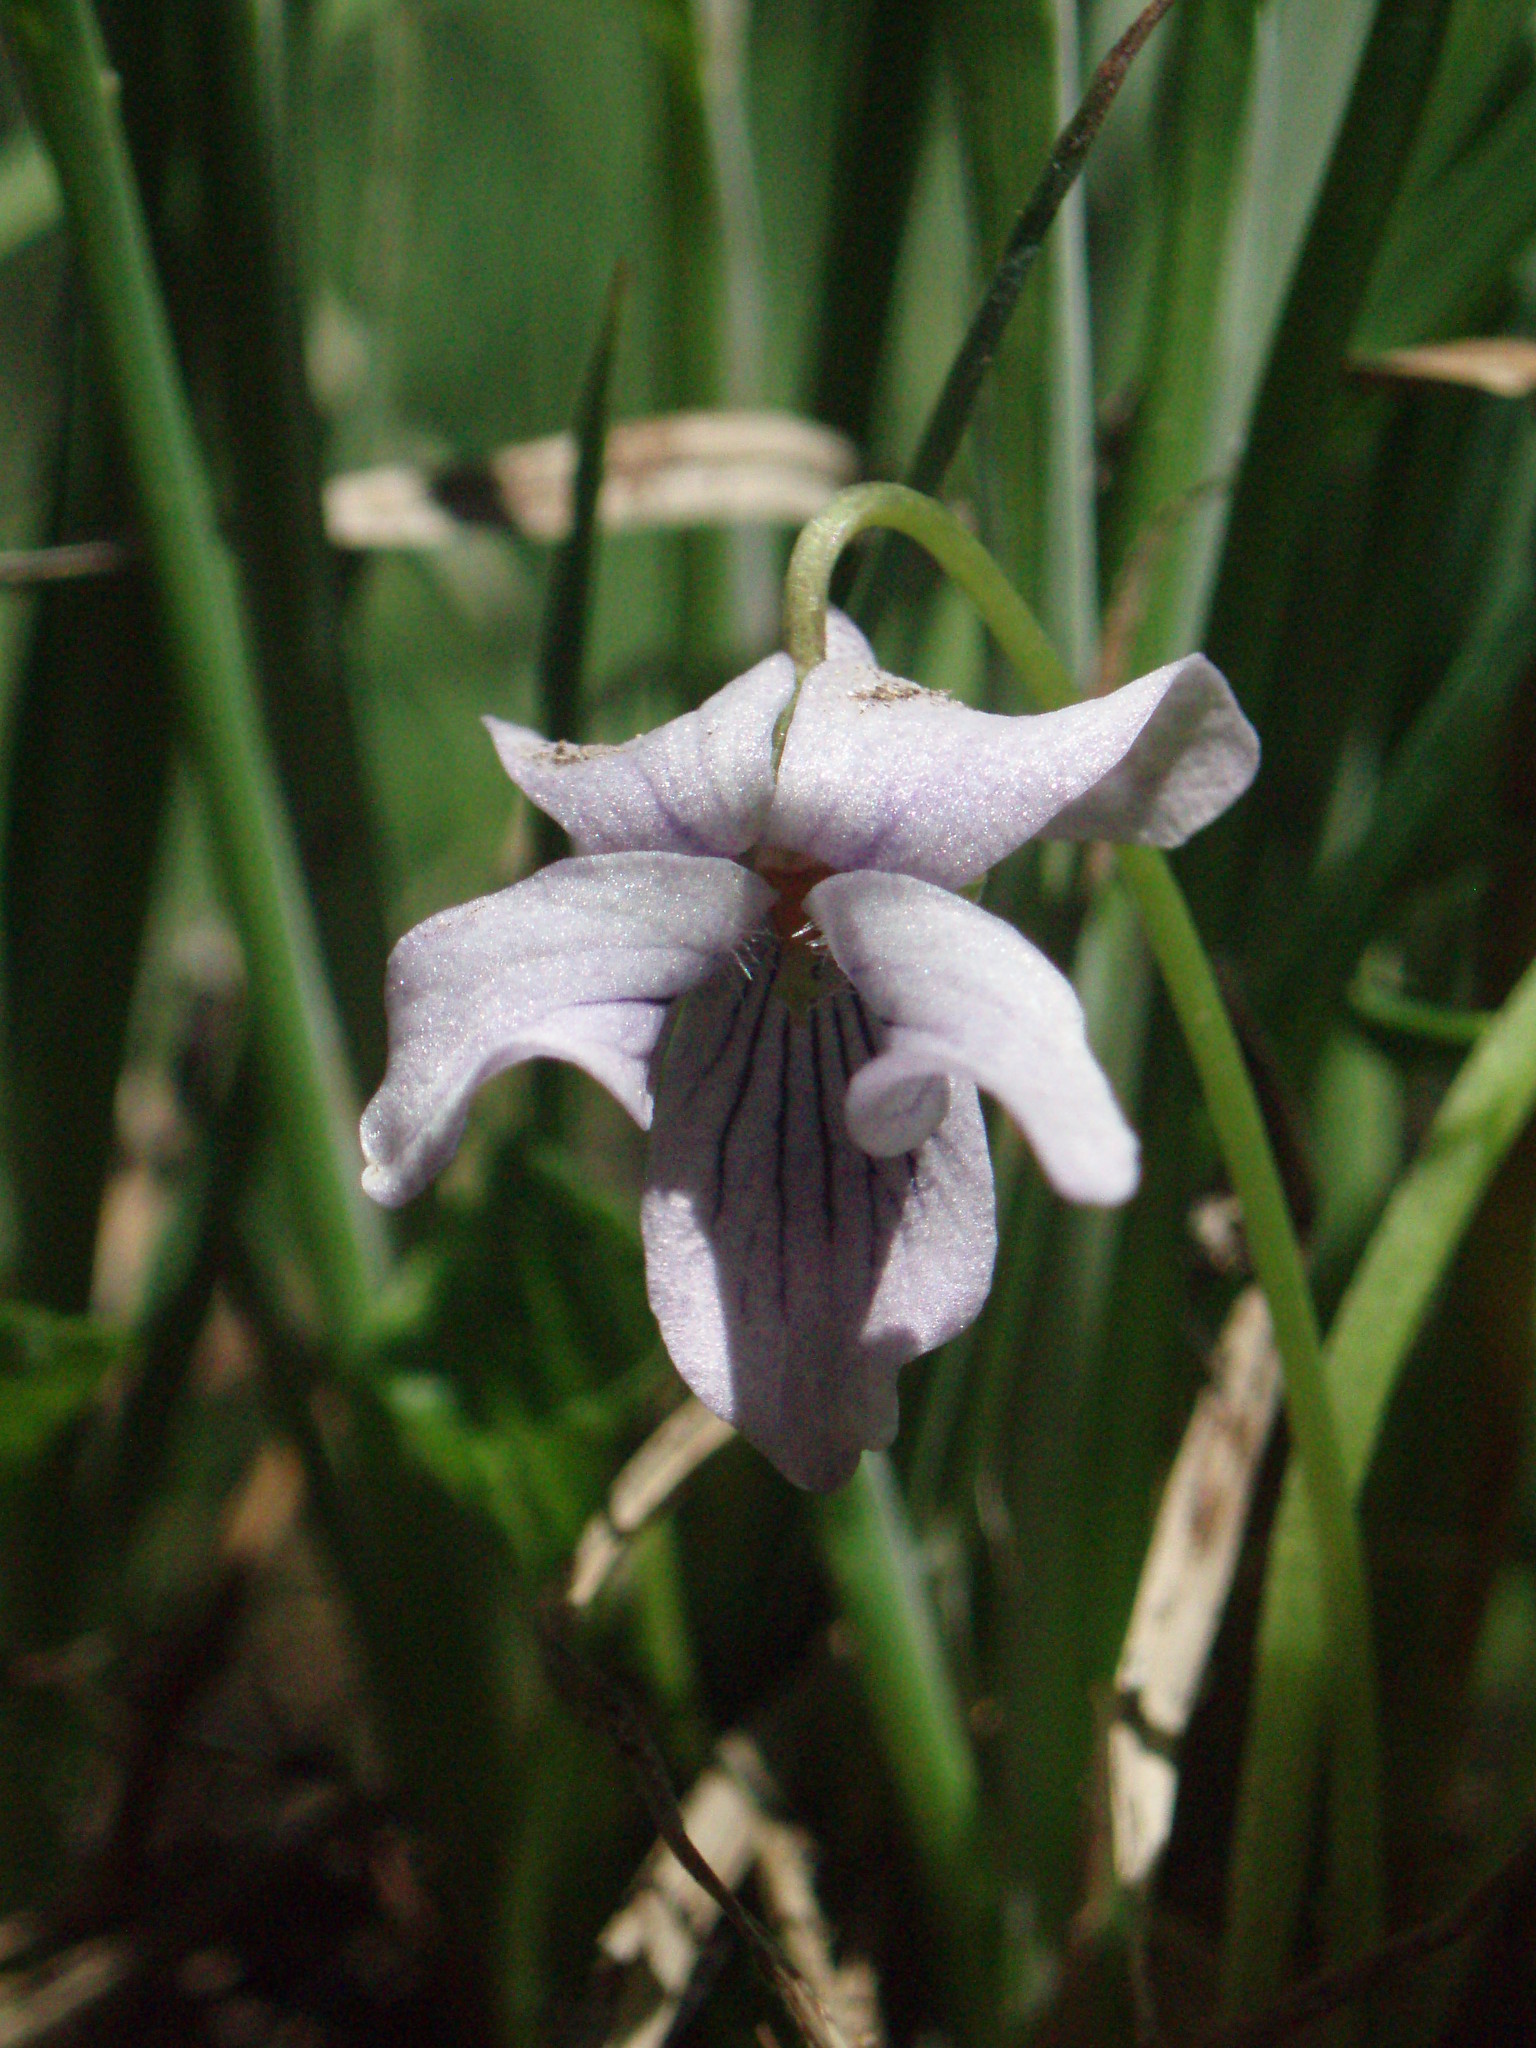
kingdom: Plantae
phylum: Tracheophyta
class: Magnoliopsida
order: Malpighiales
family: Violaceae
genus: Viola
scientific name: Viola palustris
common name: Marsh violet
